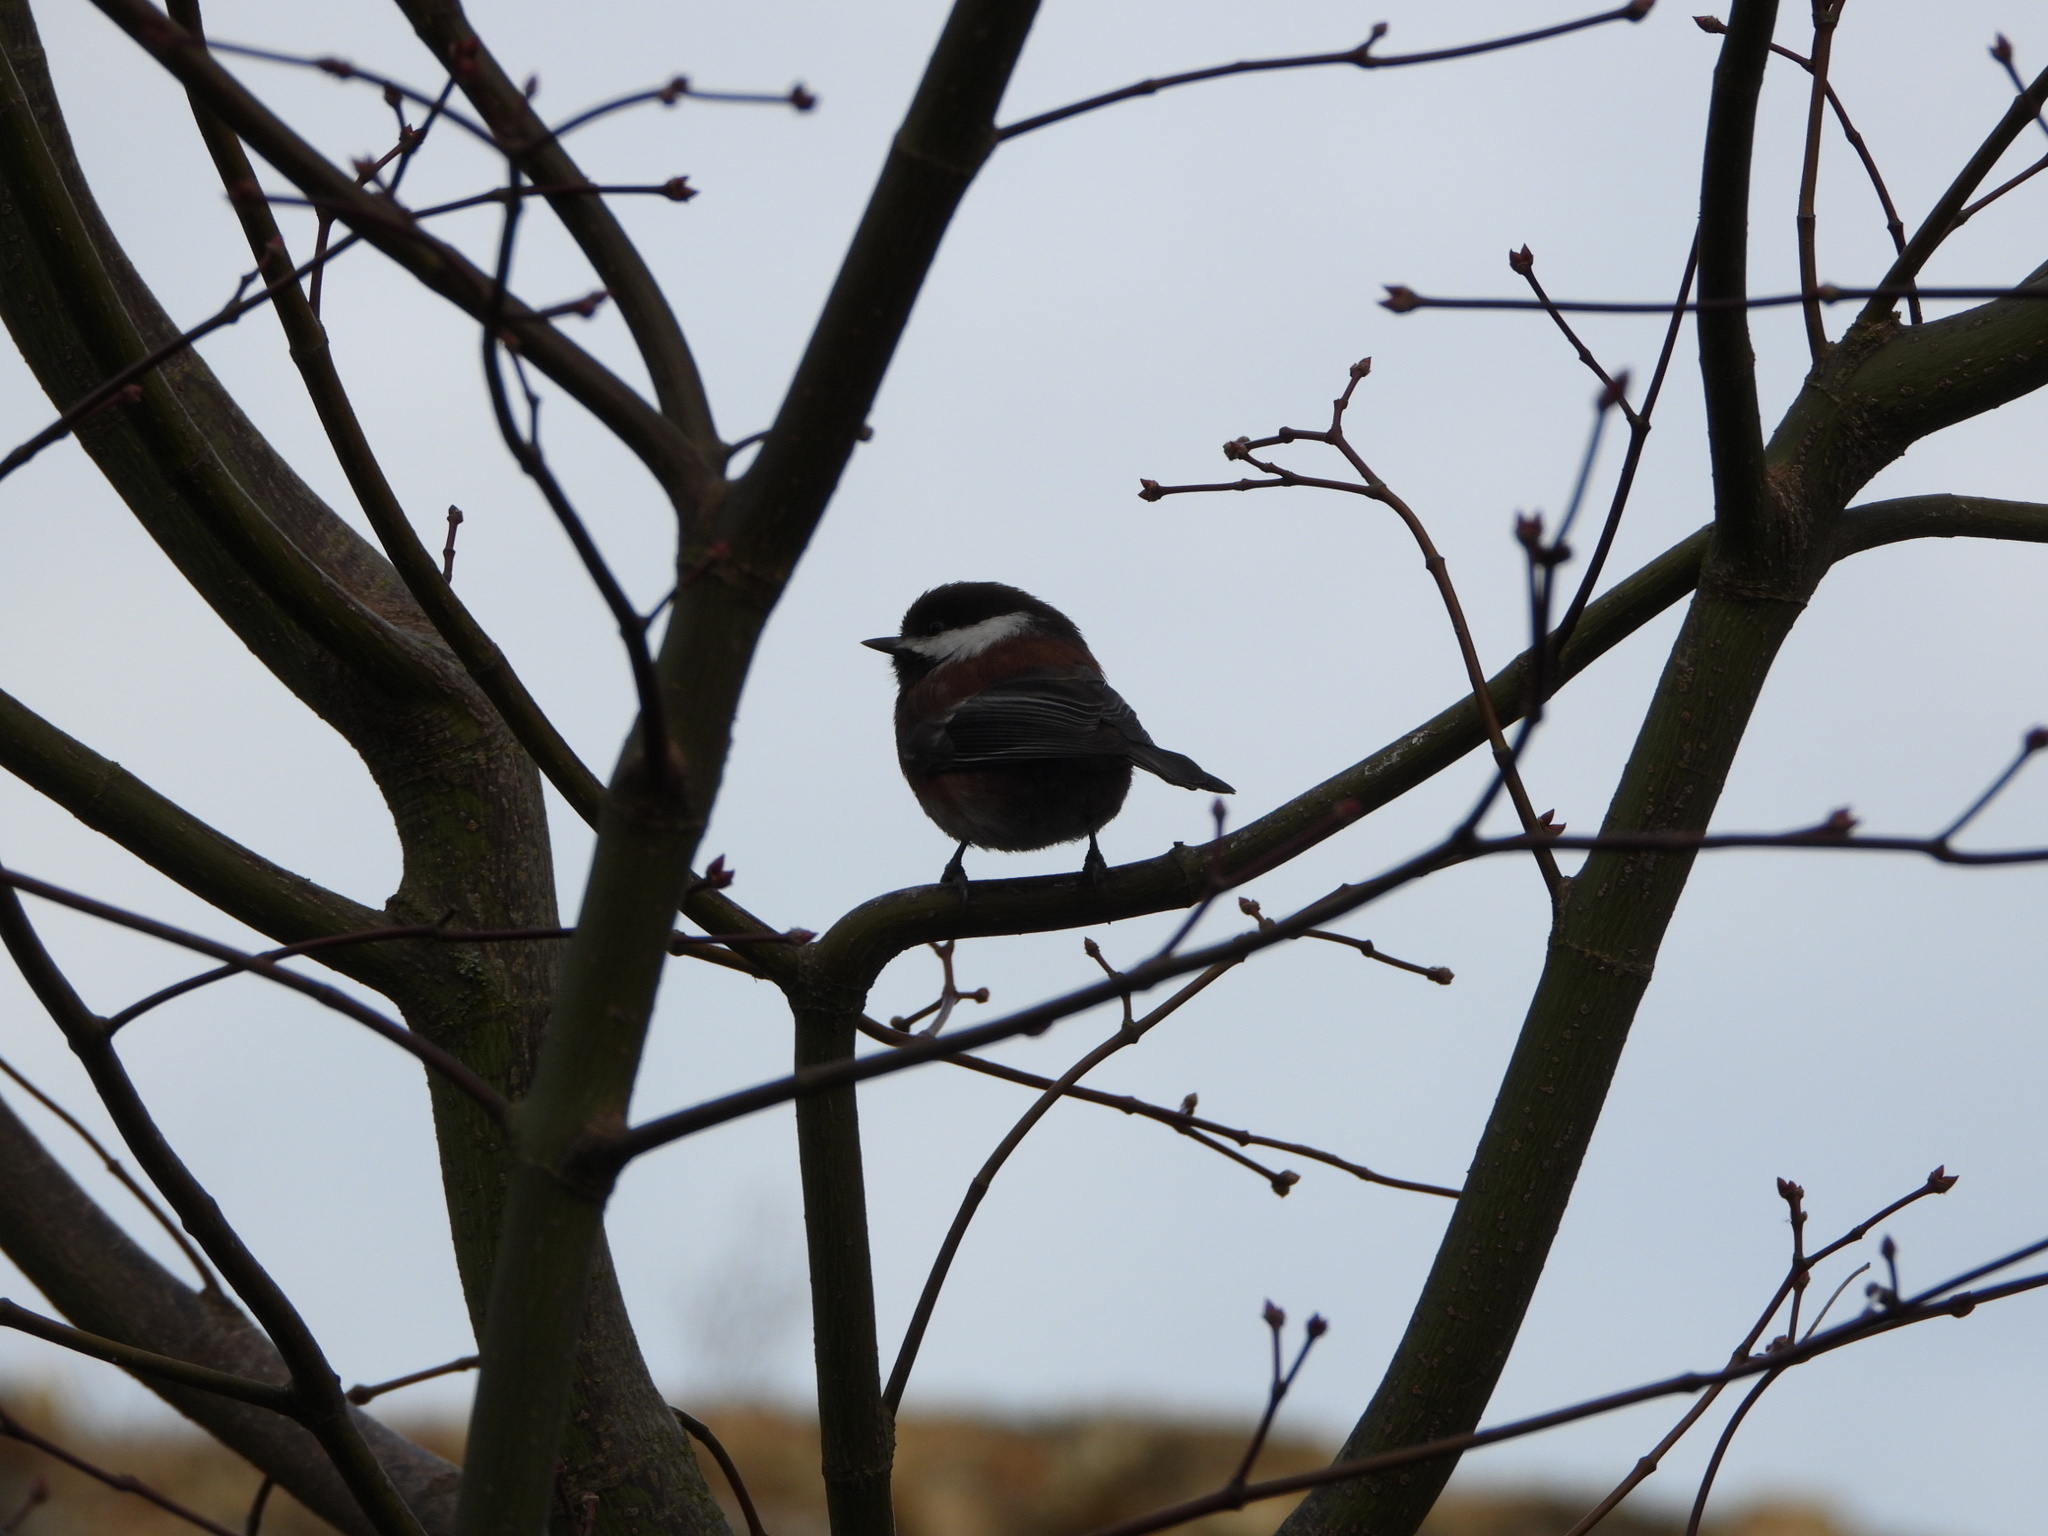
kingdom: Animalia
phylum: Chordata
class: Aves
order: Passeriformes
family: Paridae
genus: Poecile
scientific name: Poecile rufescens
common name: Chestnut-backed chickadee
